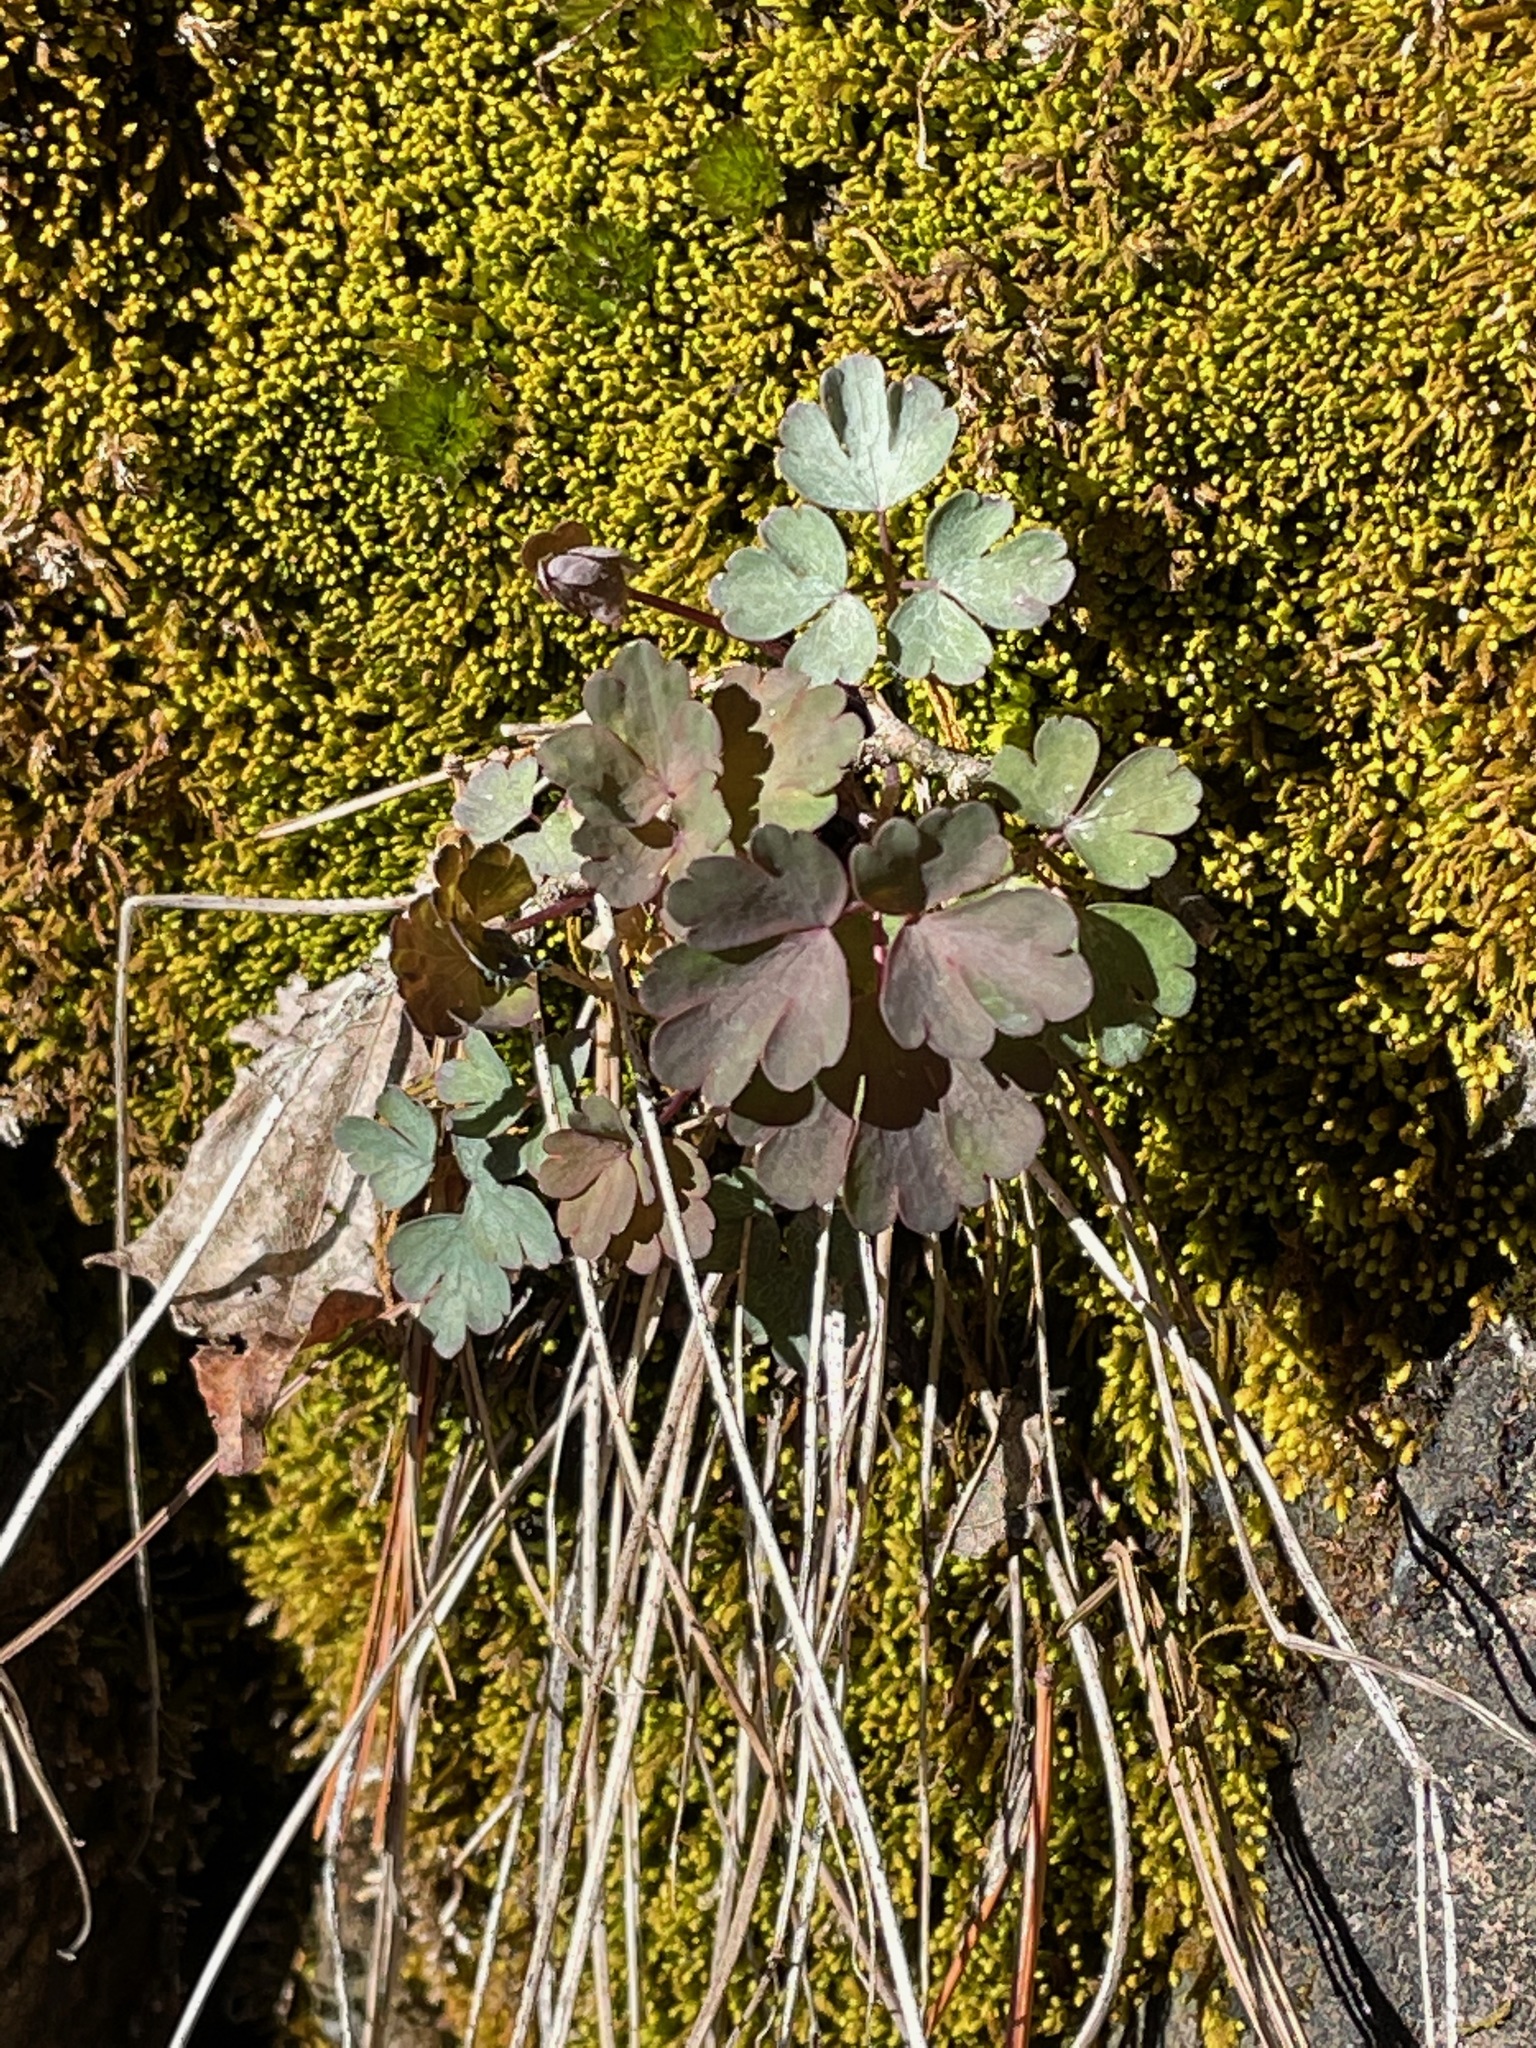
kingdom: Plantae
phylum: Tracheophyta
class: Magnoliopsida
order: Ranunculales
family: Ranunculaceae
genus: Aquilegia
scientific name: Aquilegia canadensis
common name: American columbine
